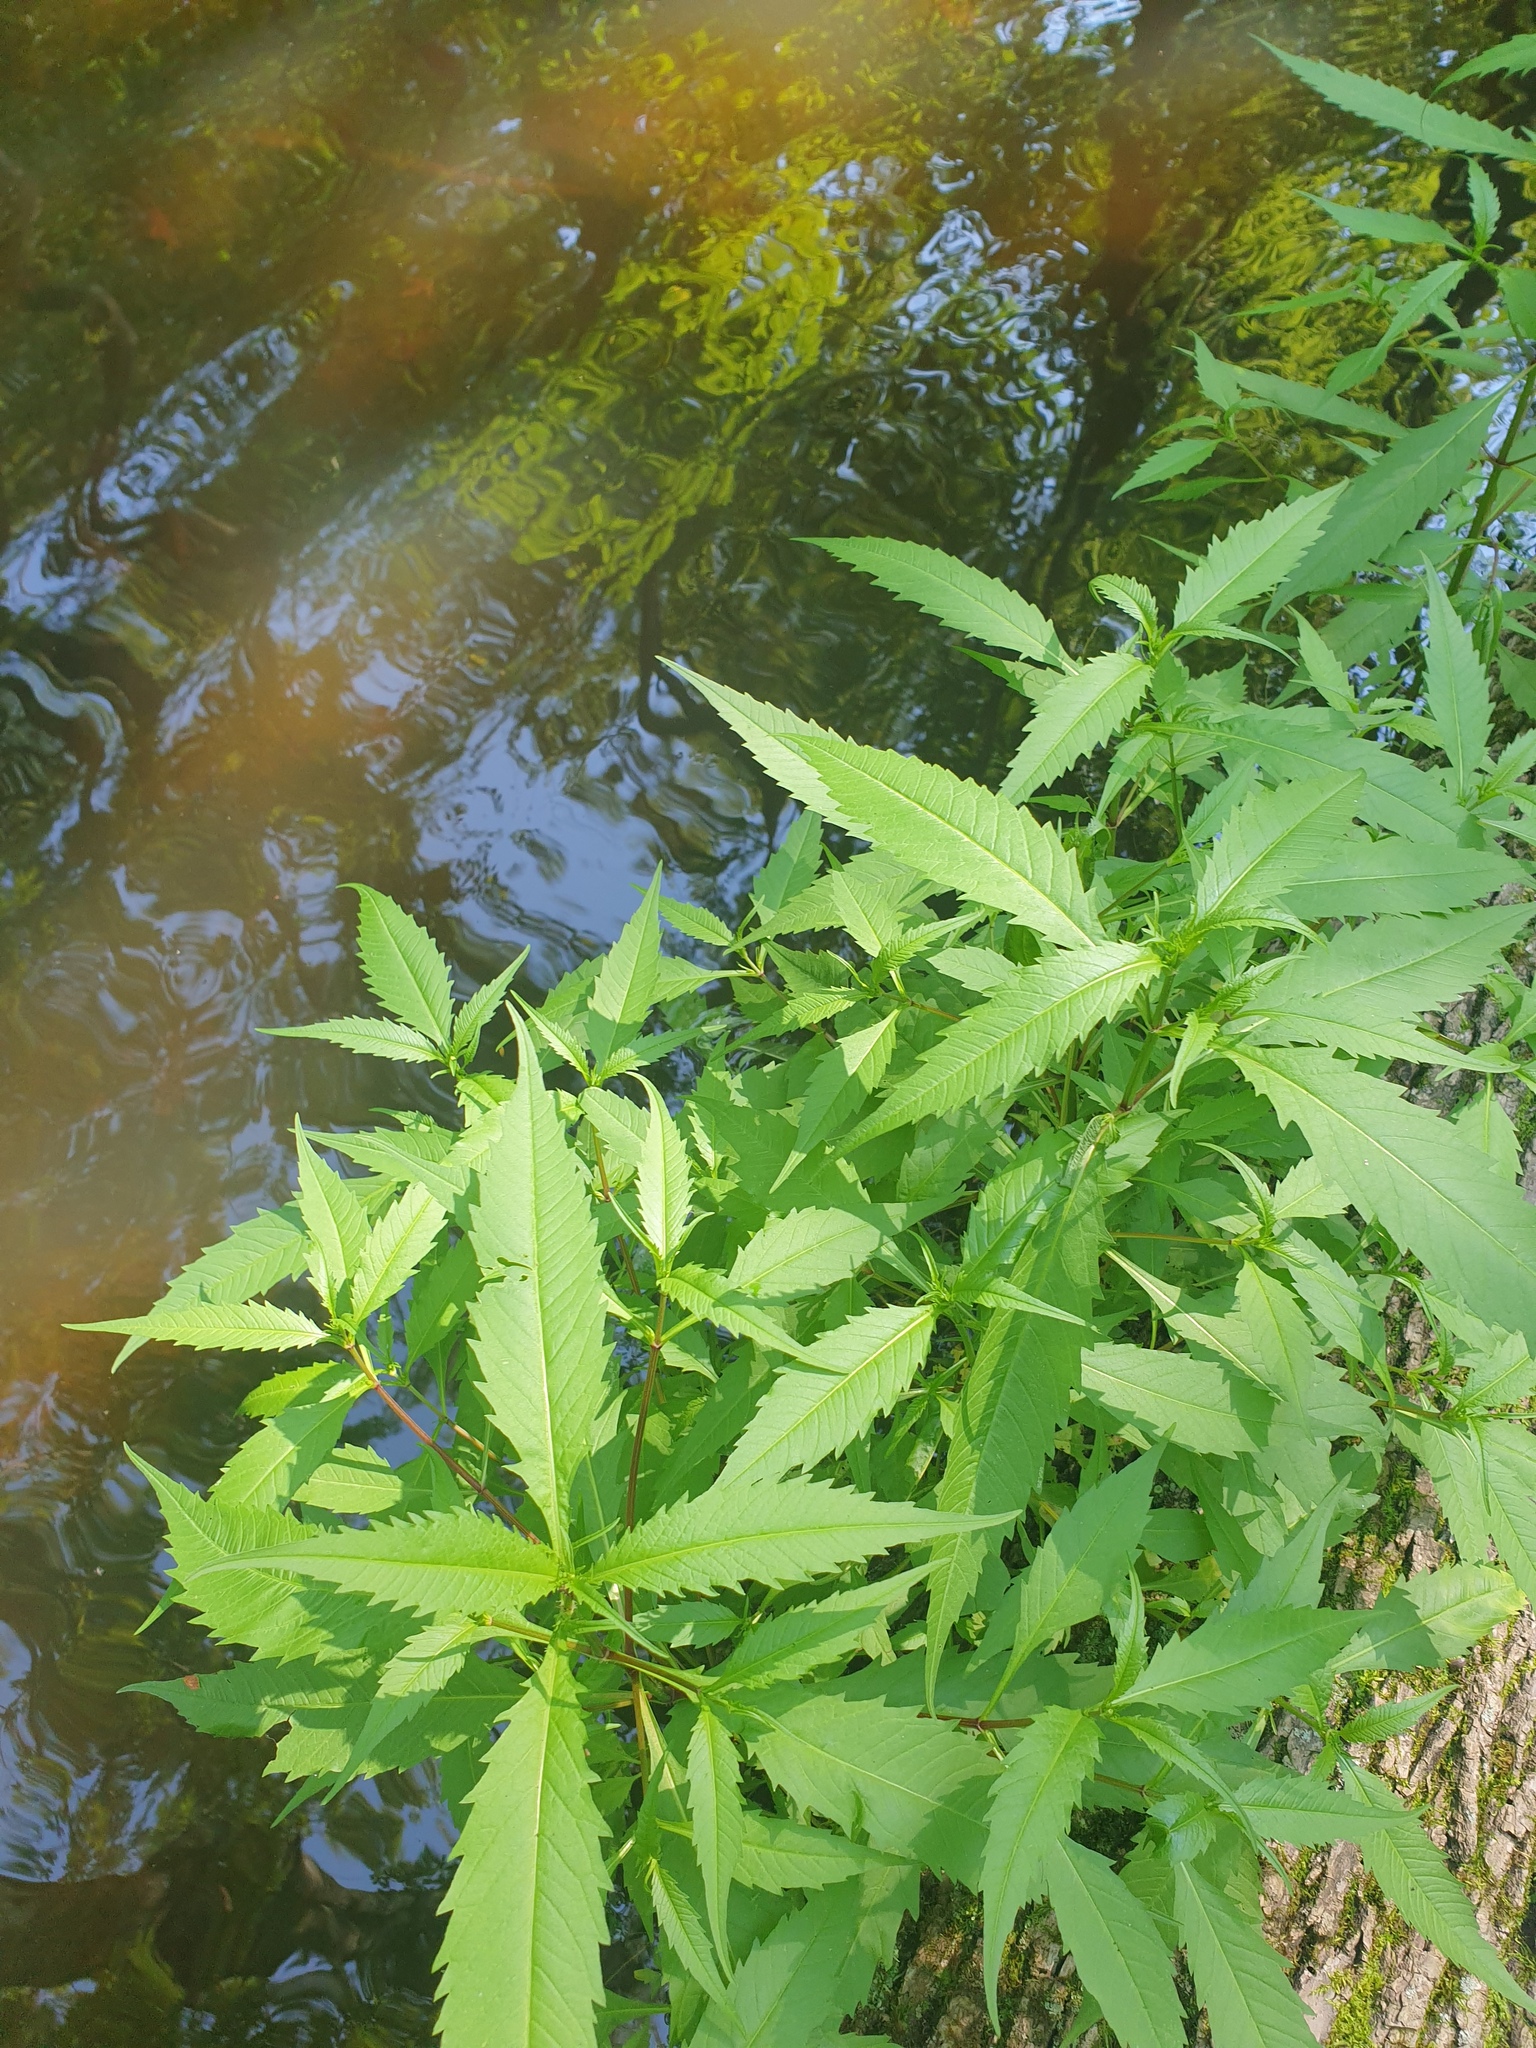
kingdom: Plantae
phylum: Tracheophyta
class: Magnoliopsida
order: Asterales
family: Asteraceae
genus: Bidens
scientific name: Bidens connata
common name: London bur-marigold
